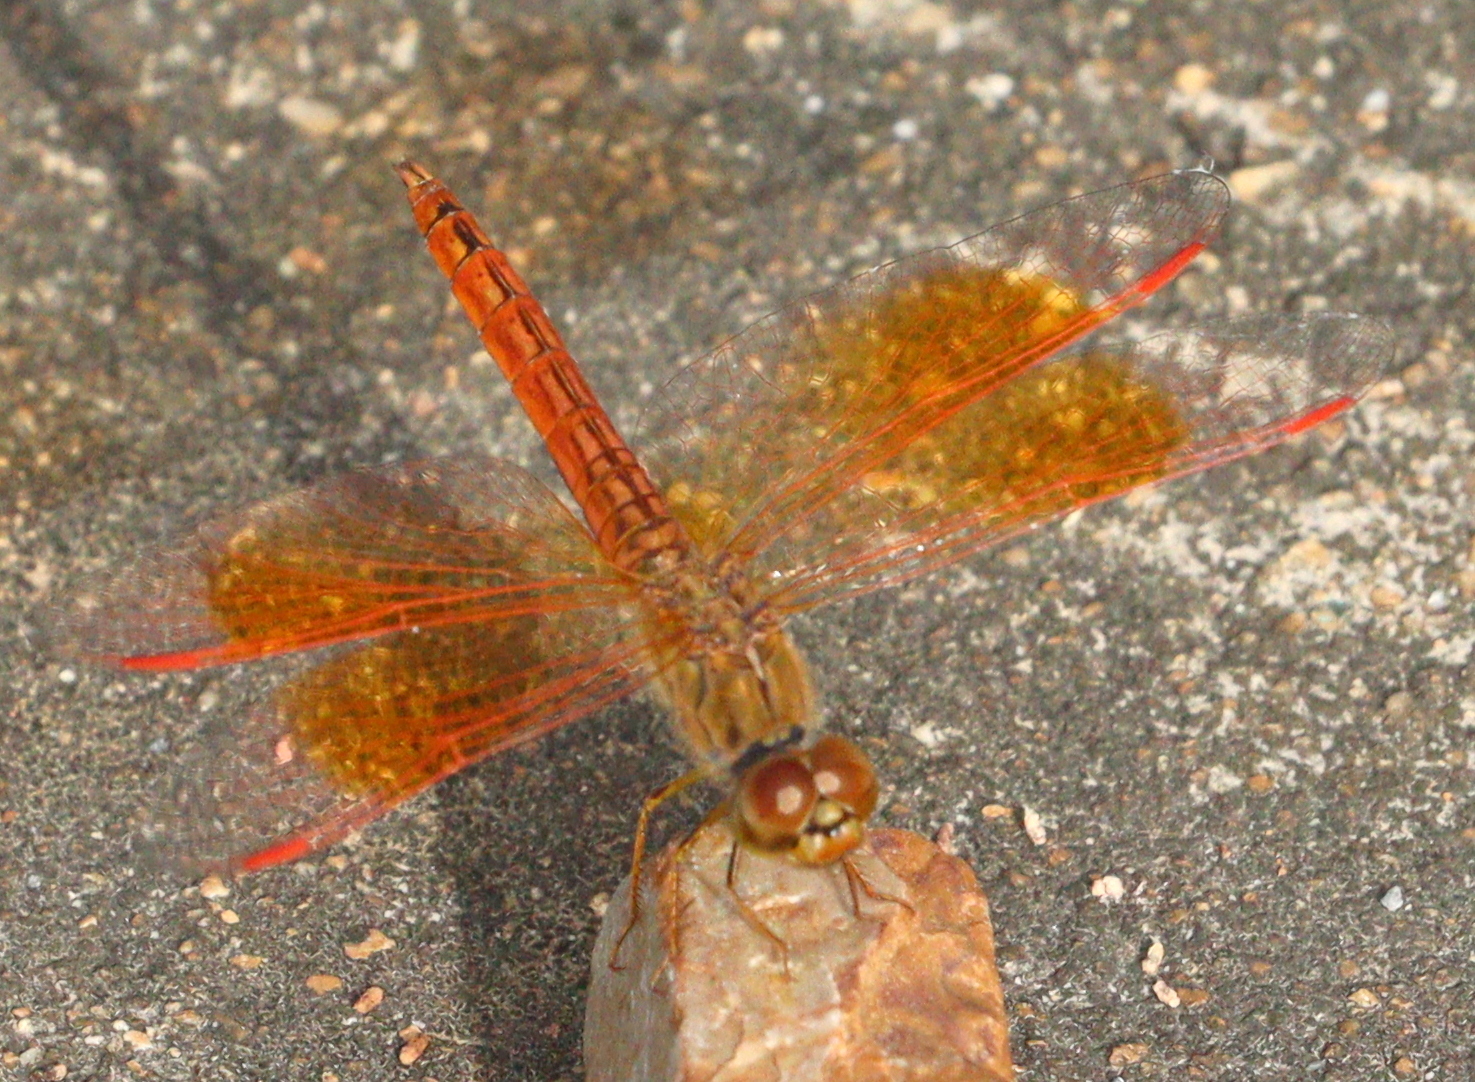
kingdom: Animalia
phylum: Arthropoda
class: Insecta
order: Odonata
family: Libellulidae
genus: Brachythemis
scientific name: Brachythemis contaminata
